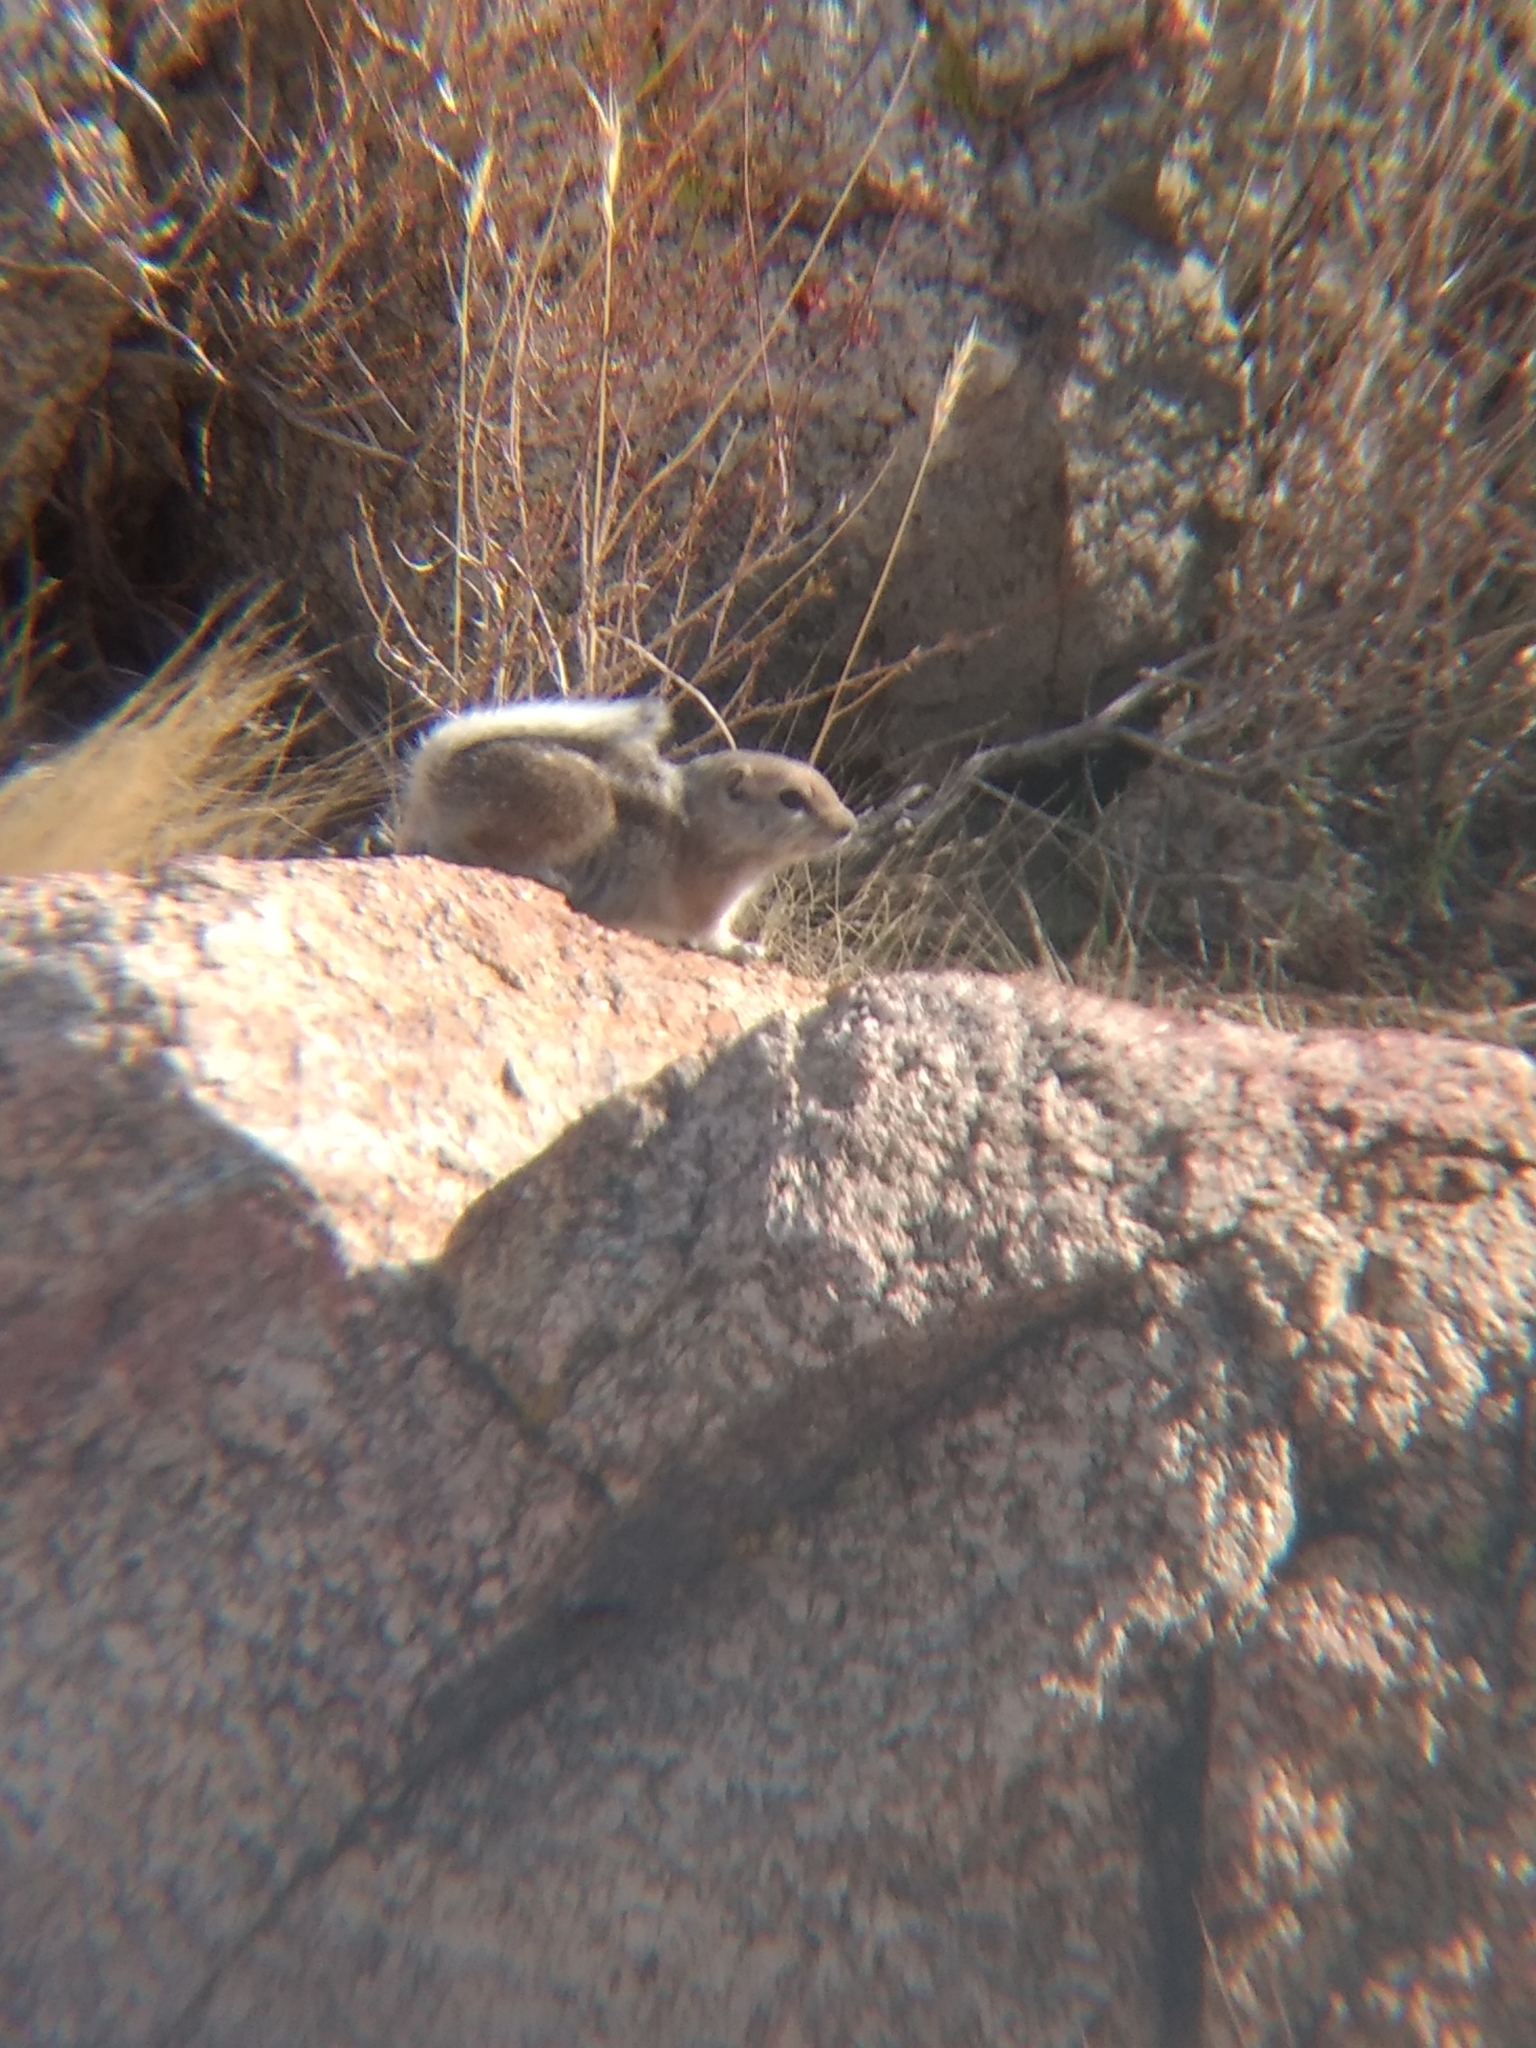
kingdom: Animalia
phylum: Chordata
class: Mammalia
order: Rodentia
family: Sciuridae
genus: Ammospermophilus
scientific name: Ammospermophilus leucurus
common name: White-tailed antelope squirrel
